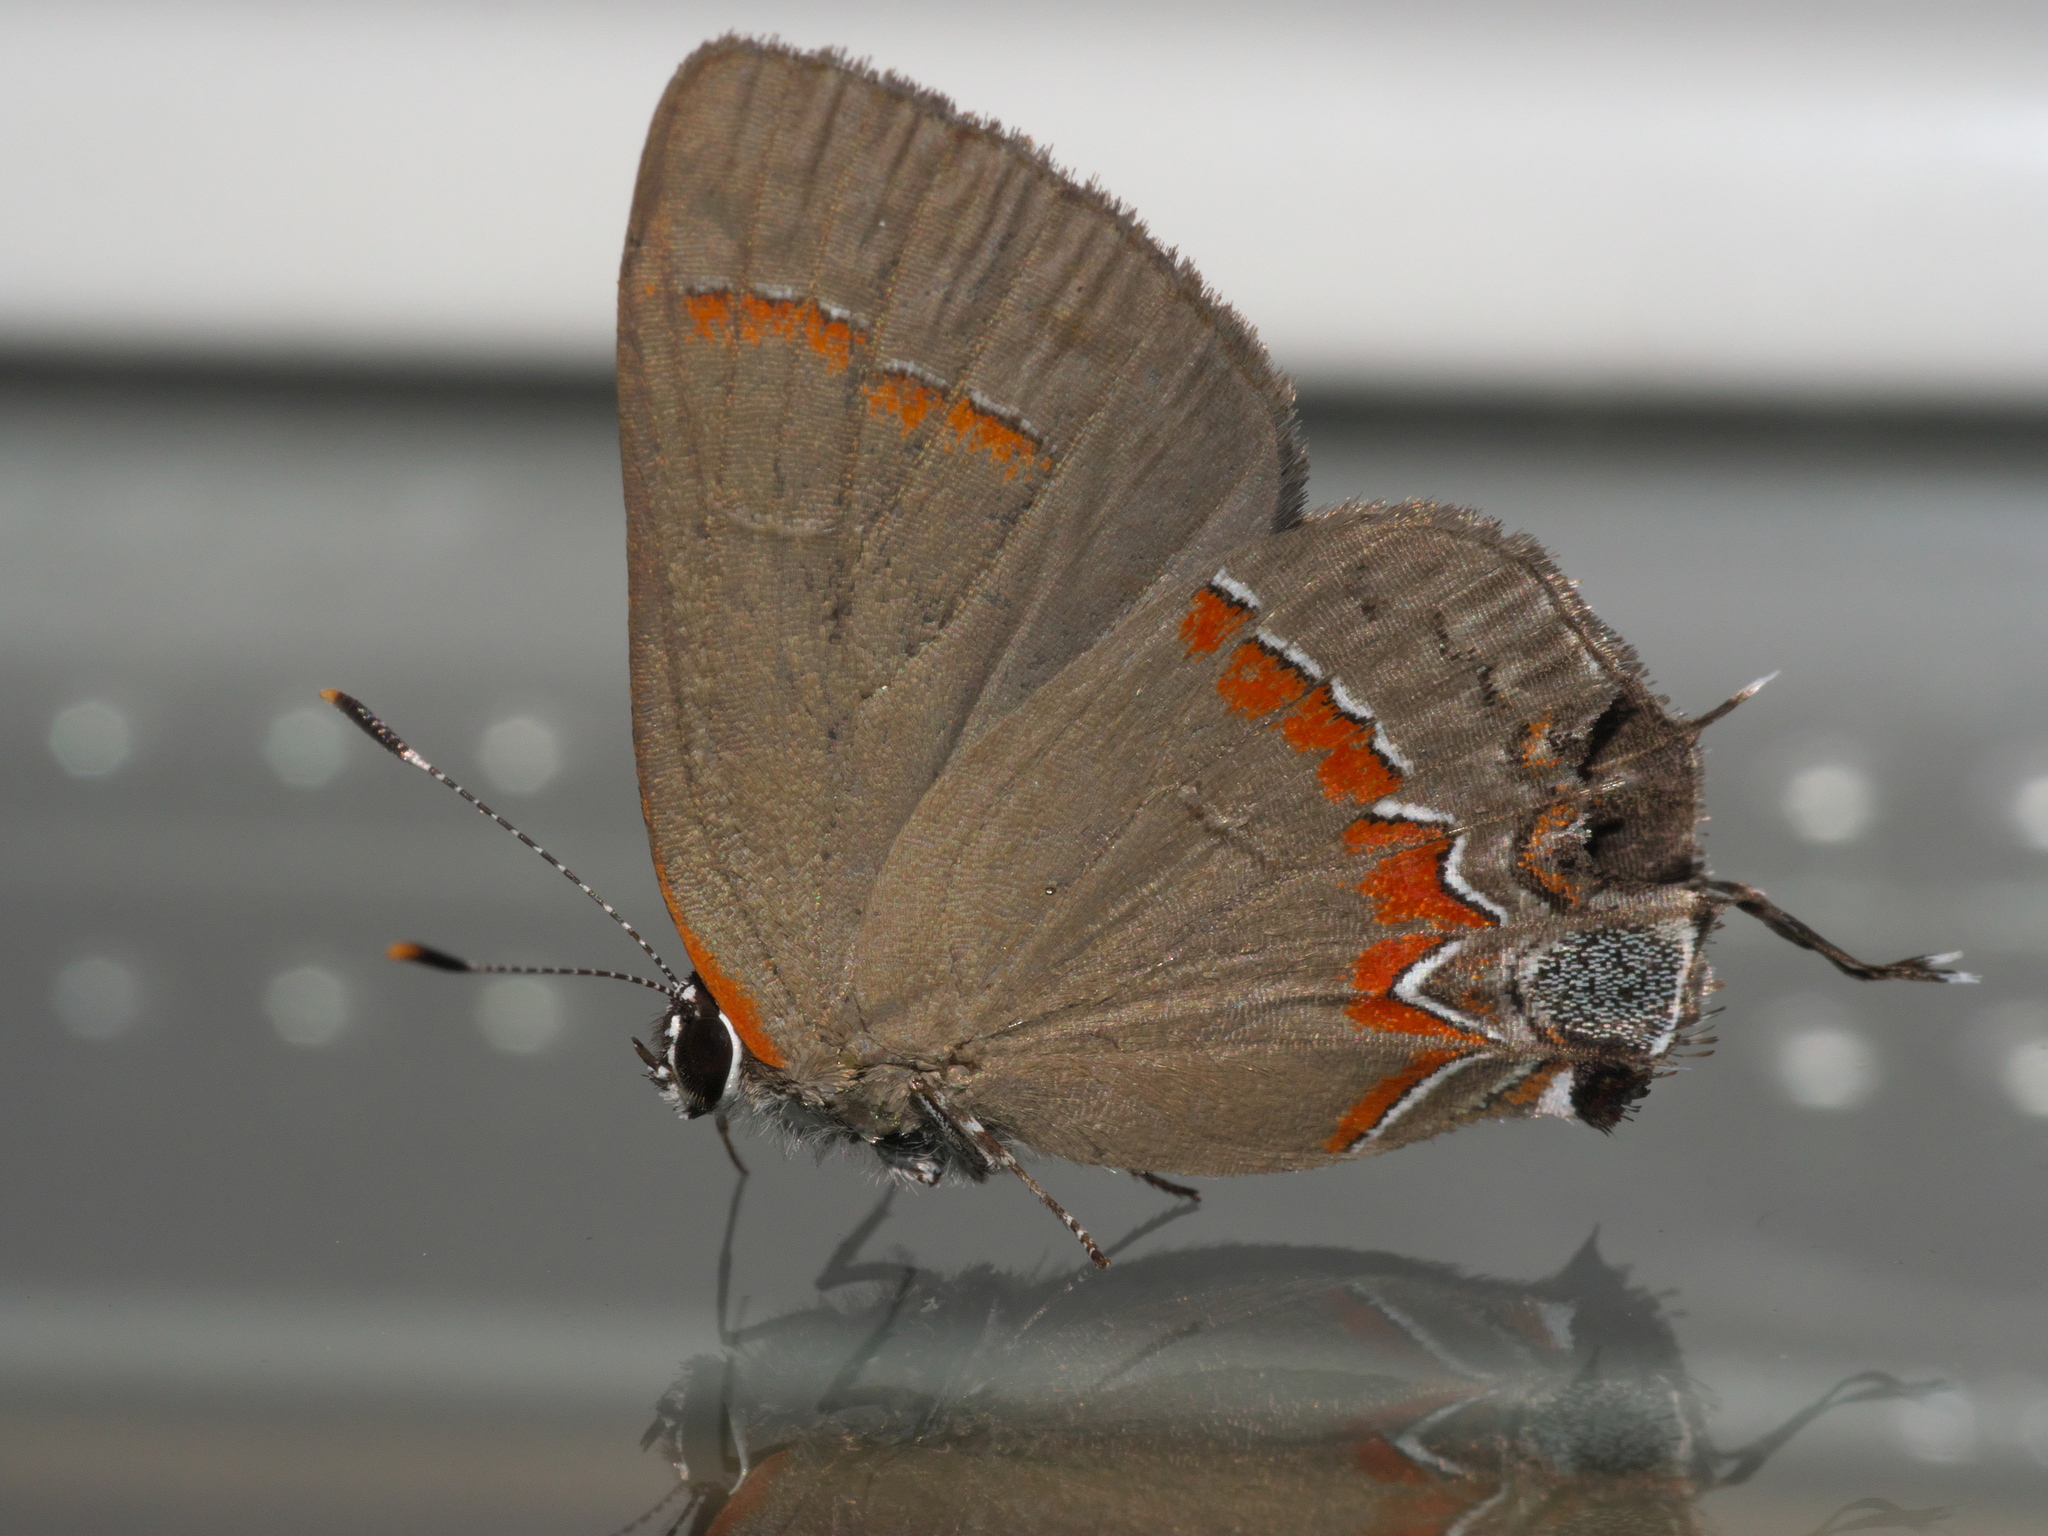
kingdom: Animalia
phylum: Arthropoda
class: Insecta
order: Lepidoptera
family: Lycaenidae
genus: Calycopis
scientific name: Calycopis cecrops
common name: Red-banded hairstreak
